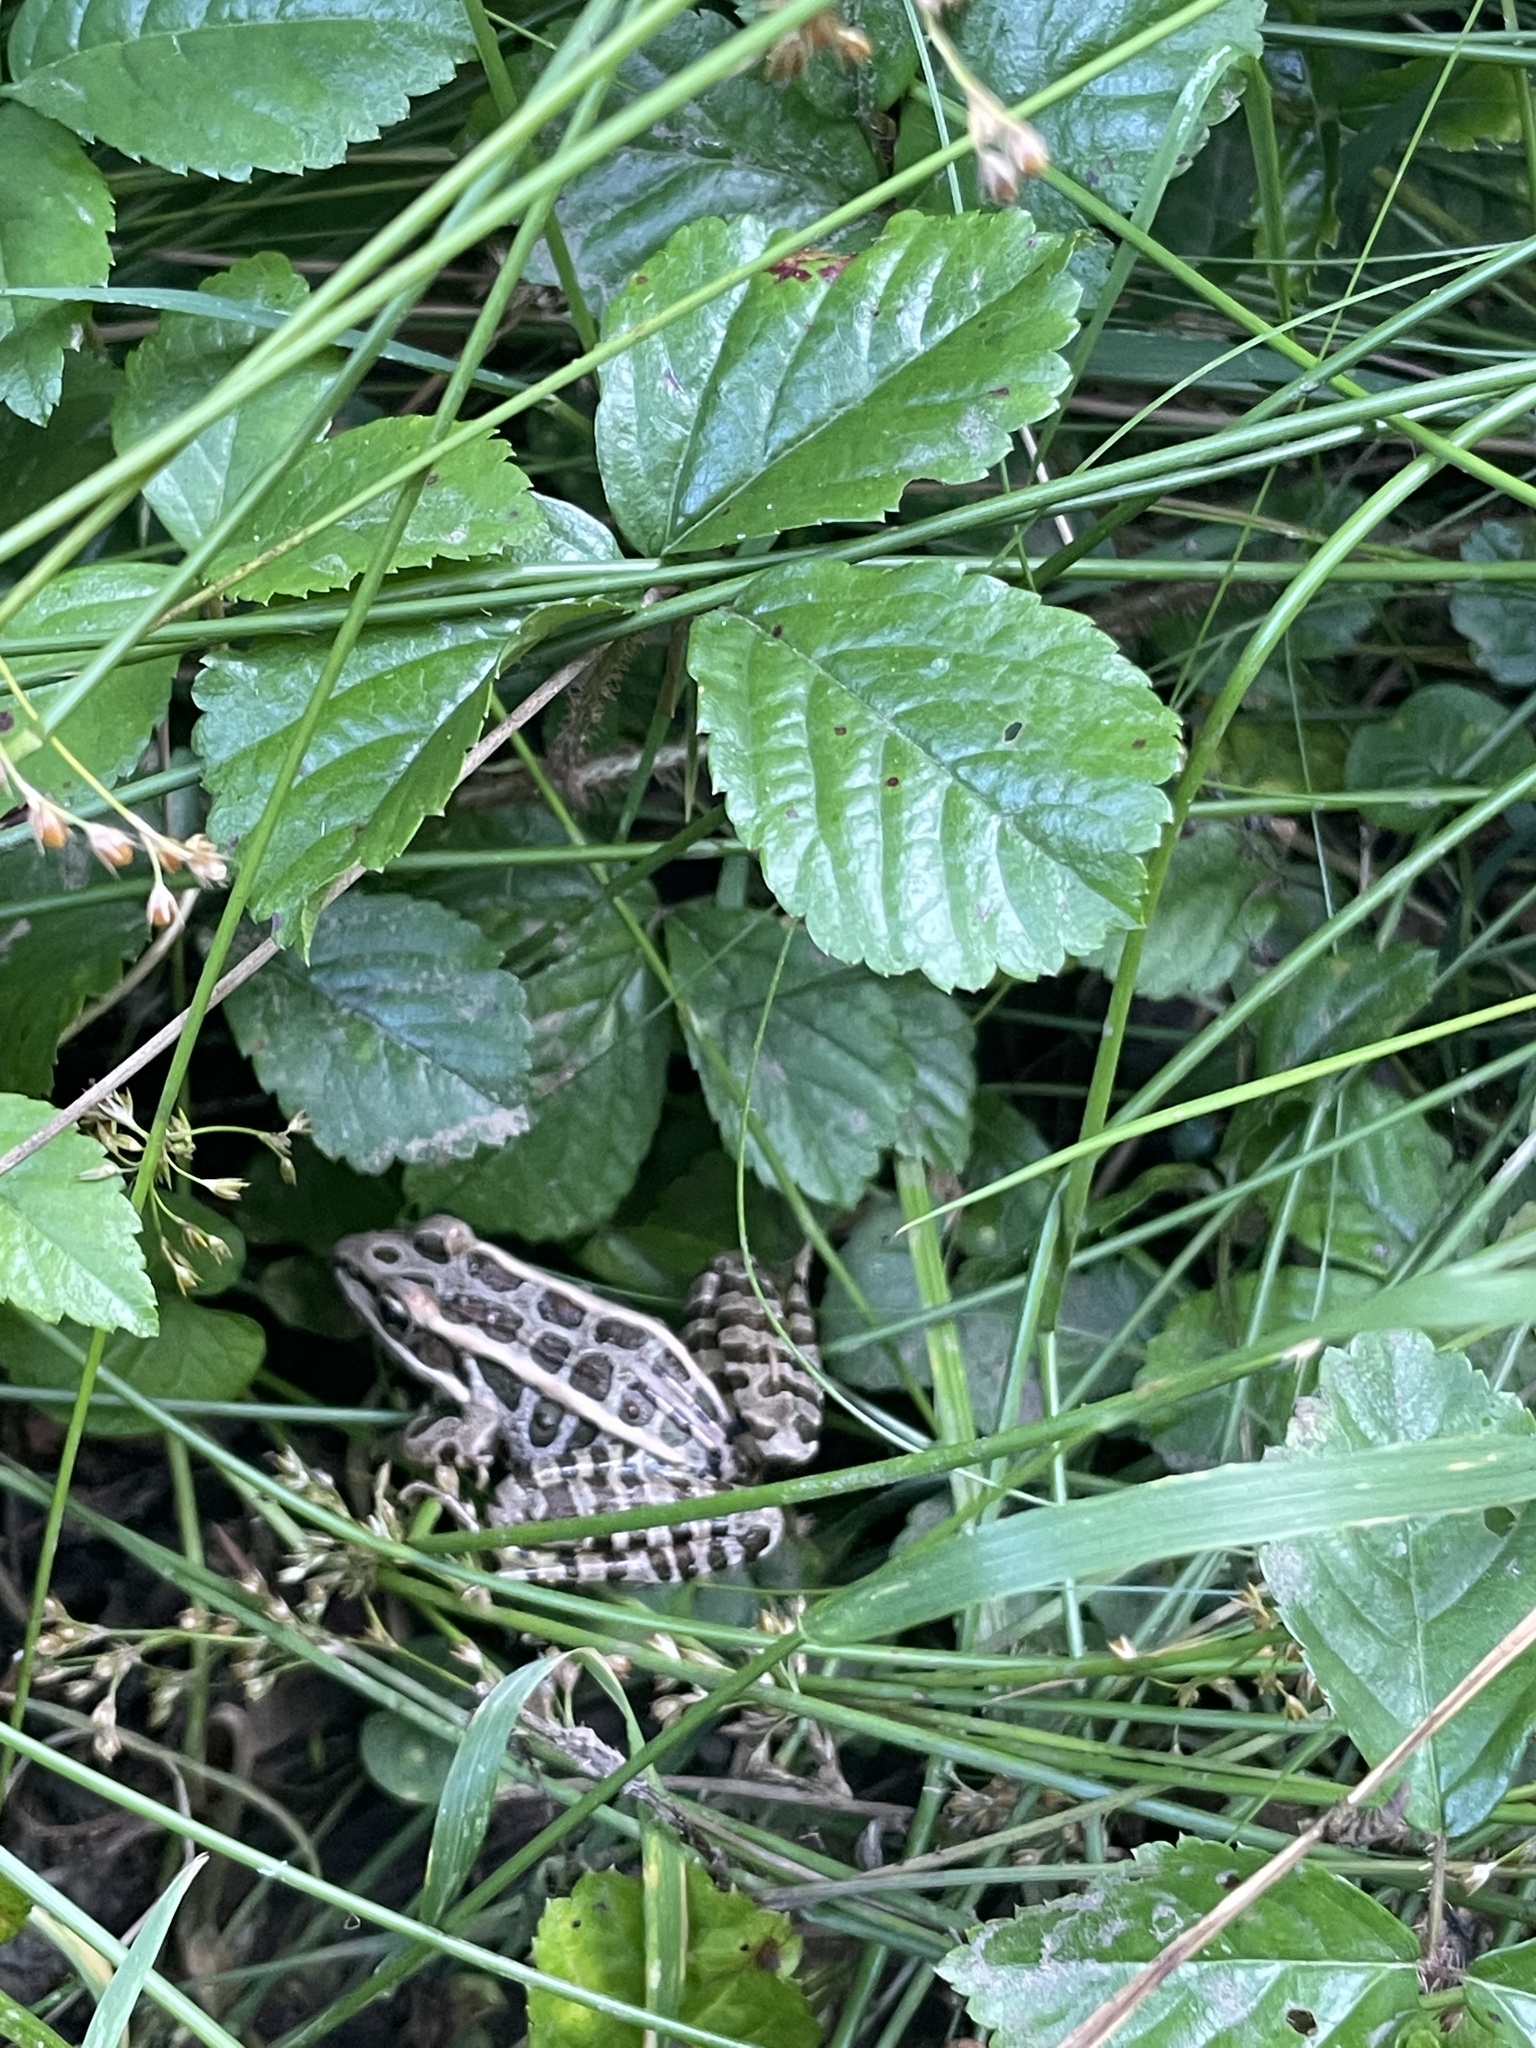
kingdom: Animalia
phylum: Chordata
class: Amphibia
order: Anura
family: Ranidae
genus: Lithobates
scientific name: Lithobates palustris
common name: Pickerel frog
